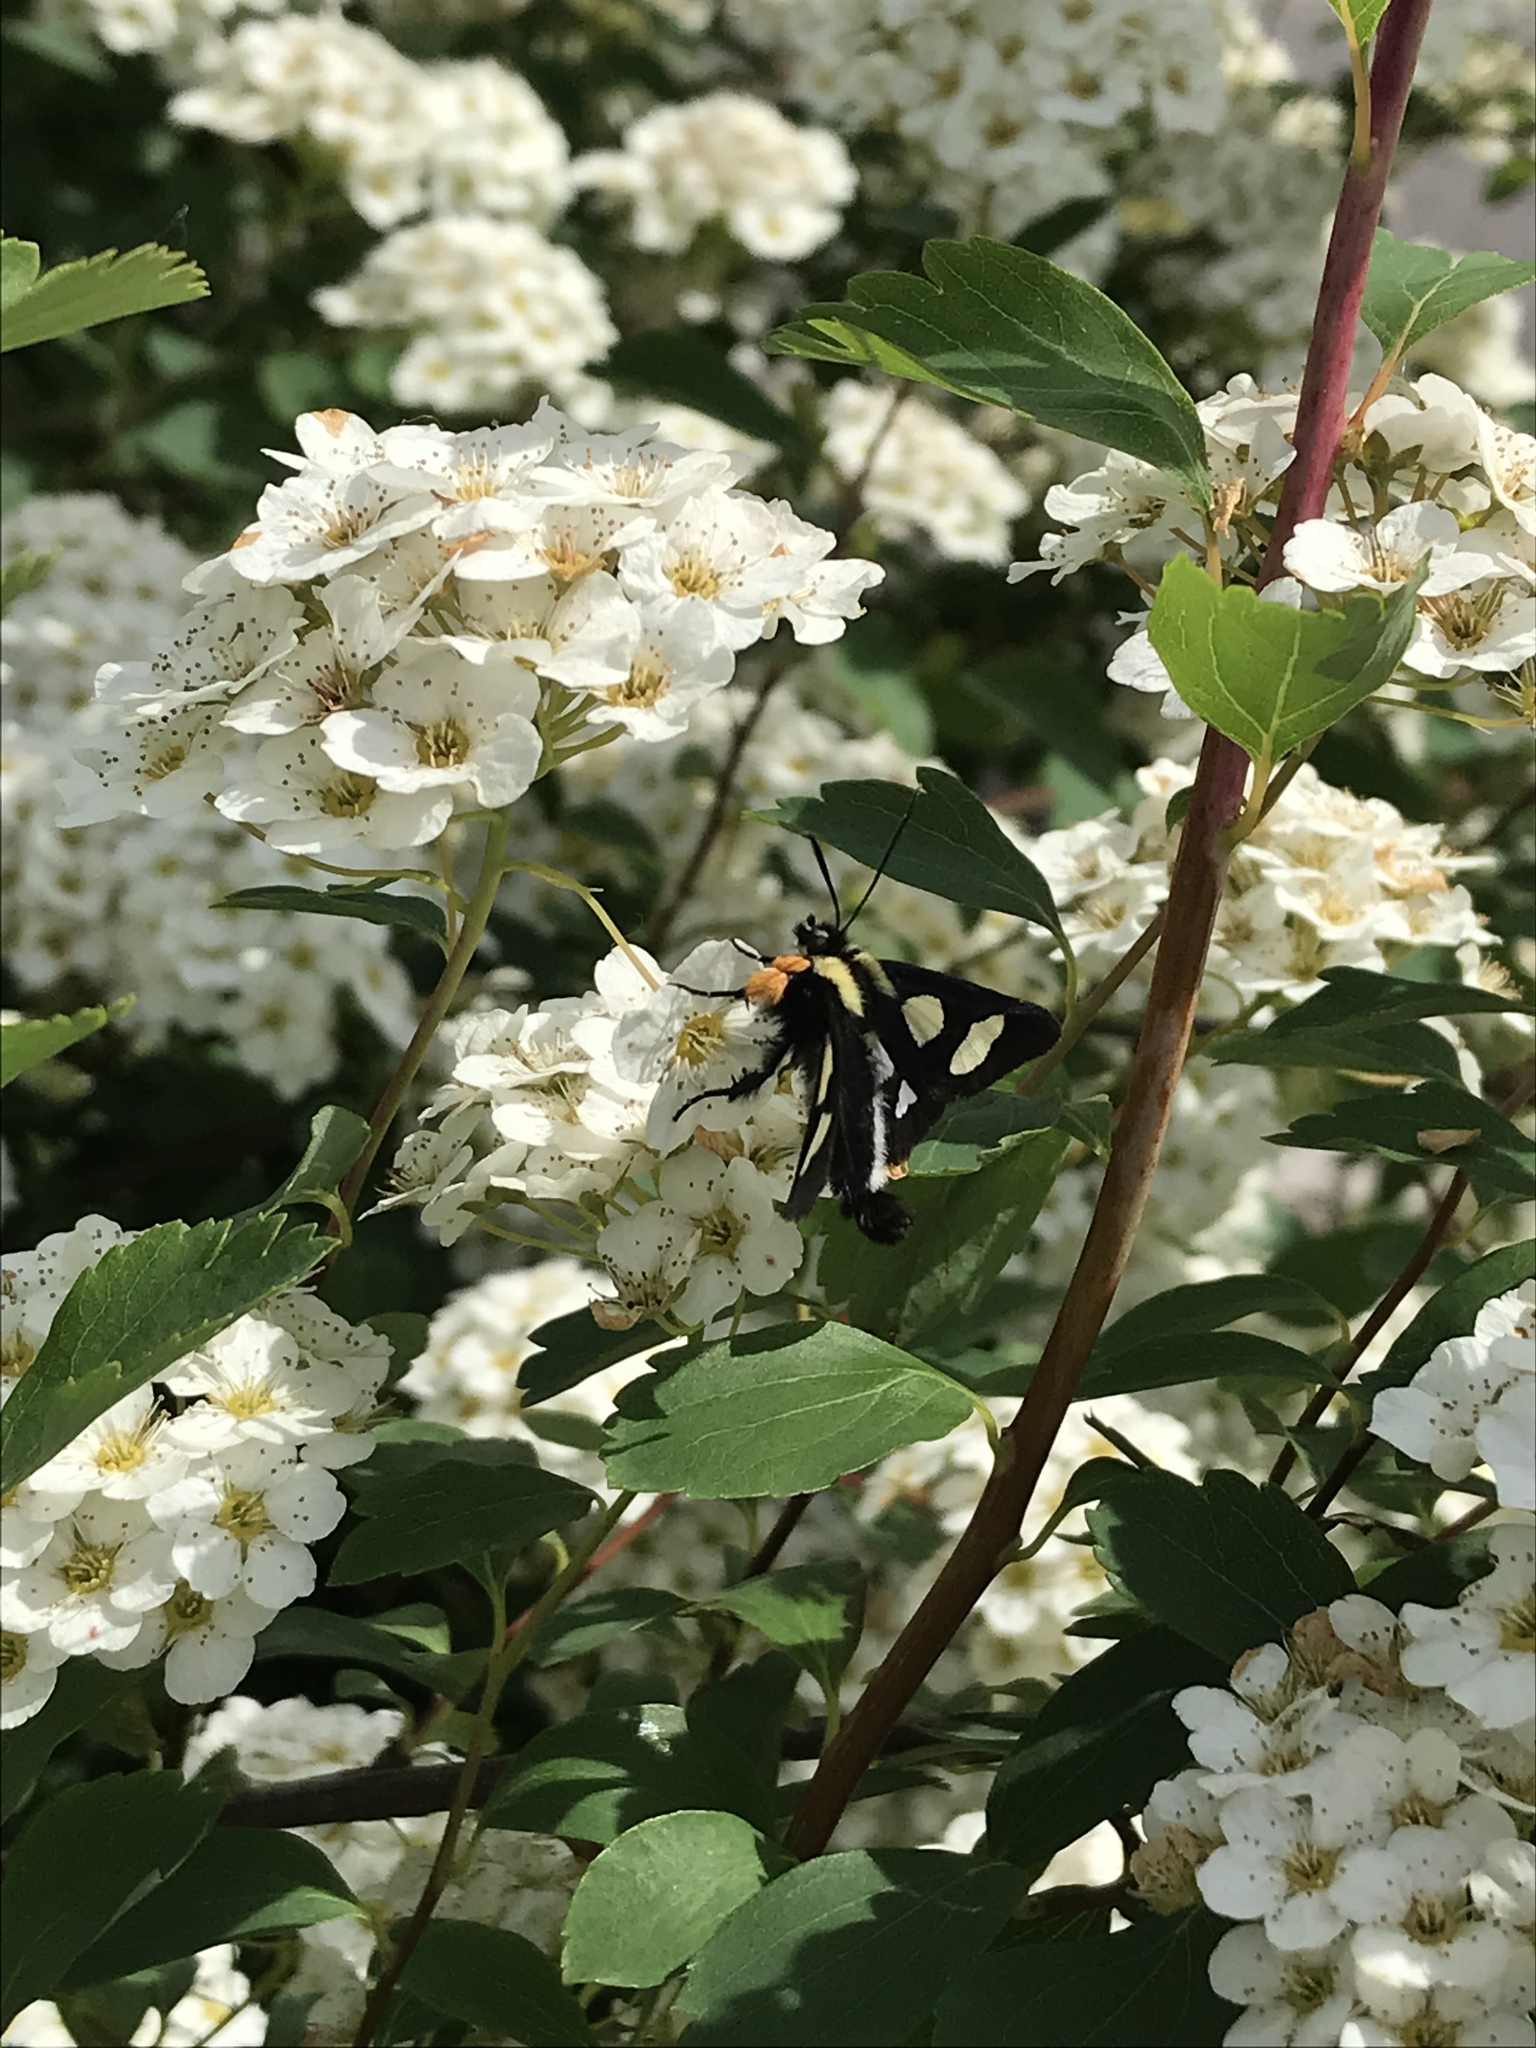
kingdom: Animalia
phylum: Arthropoda
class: Insecta
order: Lepidoptera
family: Noctuidae
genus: Alypia
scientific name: Alypia octomaculata
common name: Eight-spotted forester
